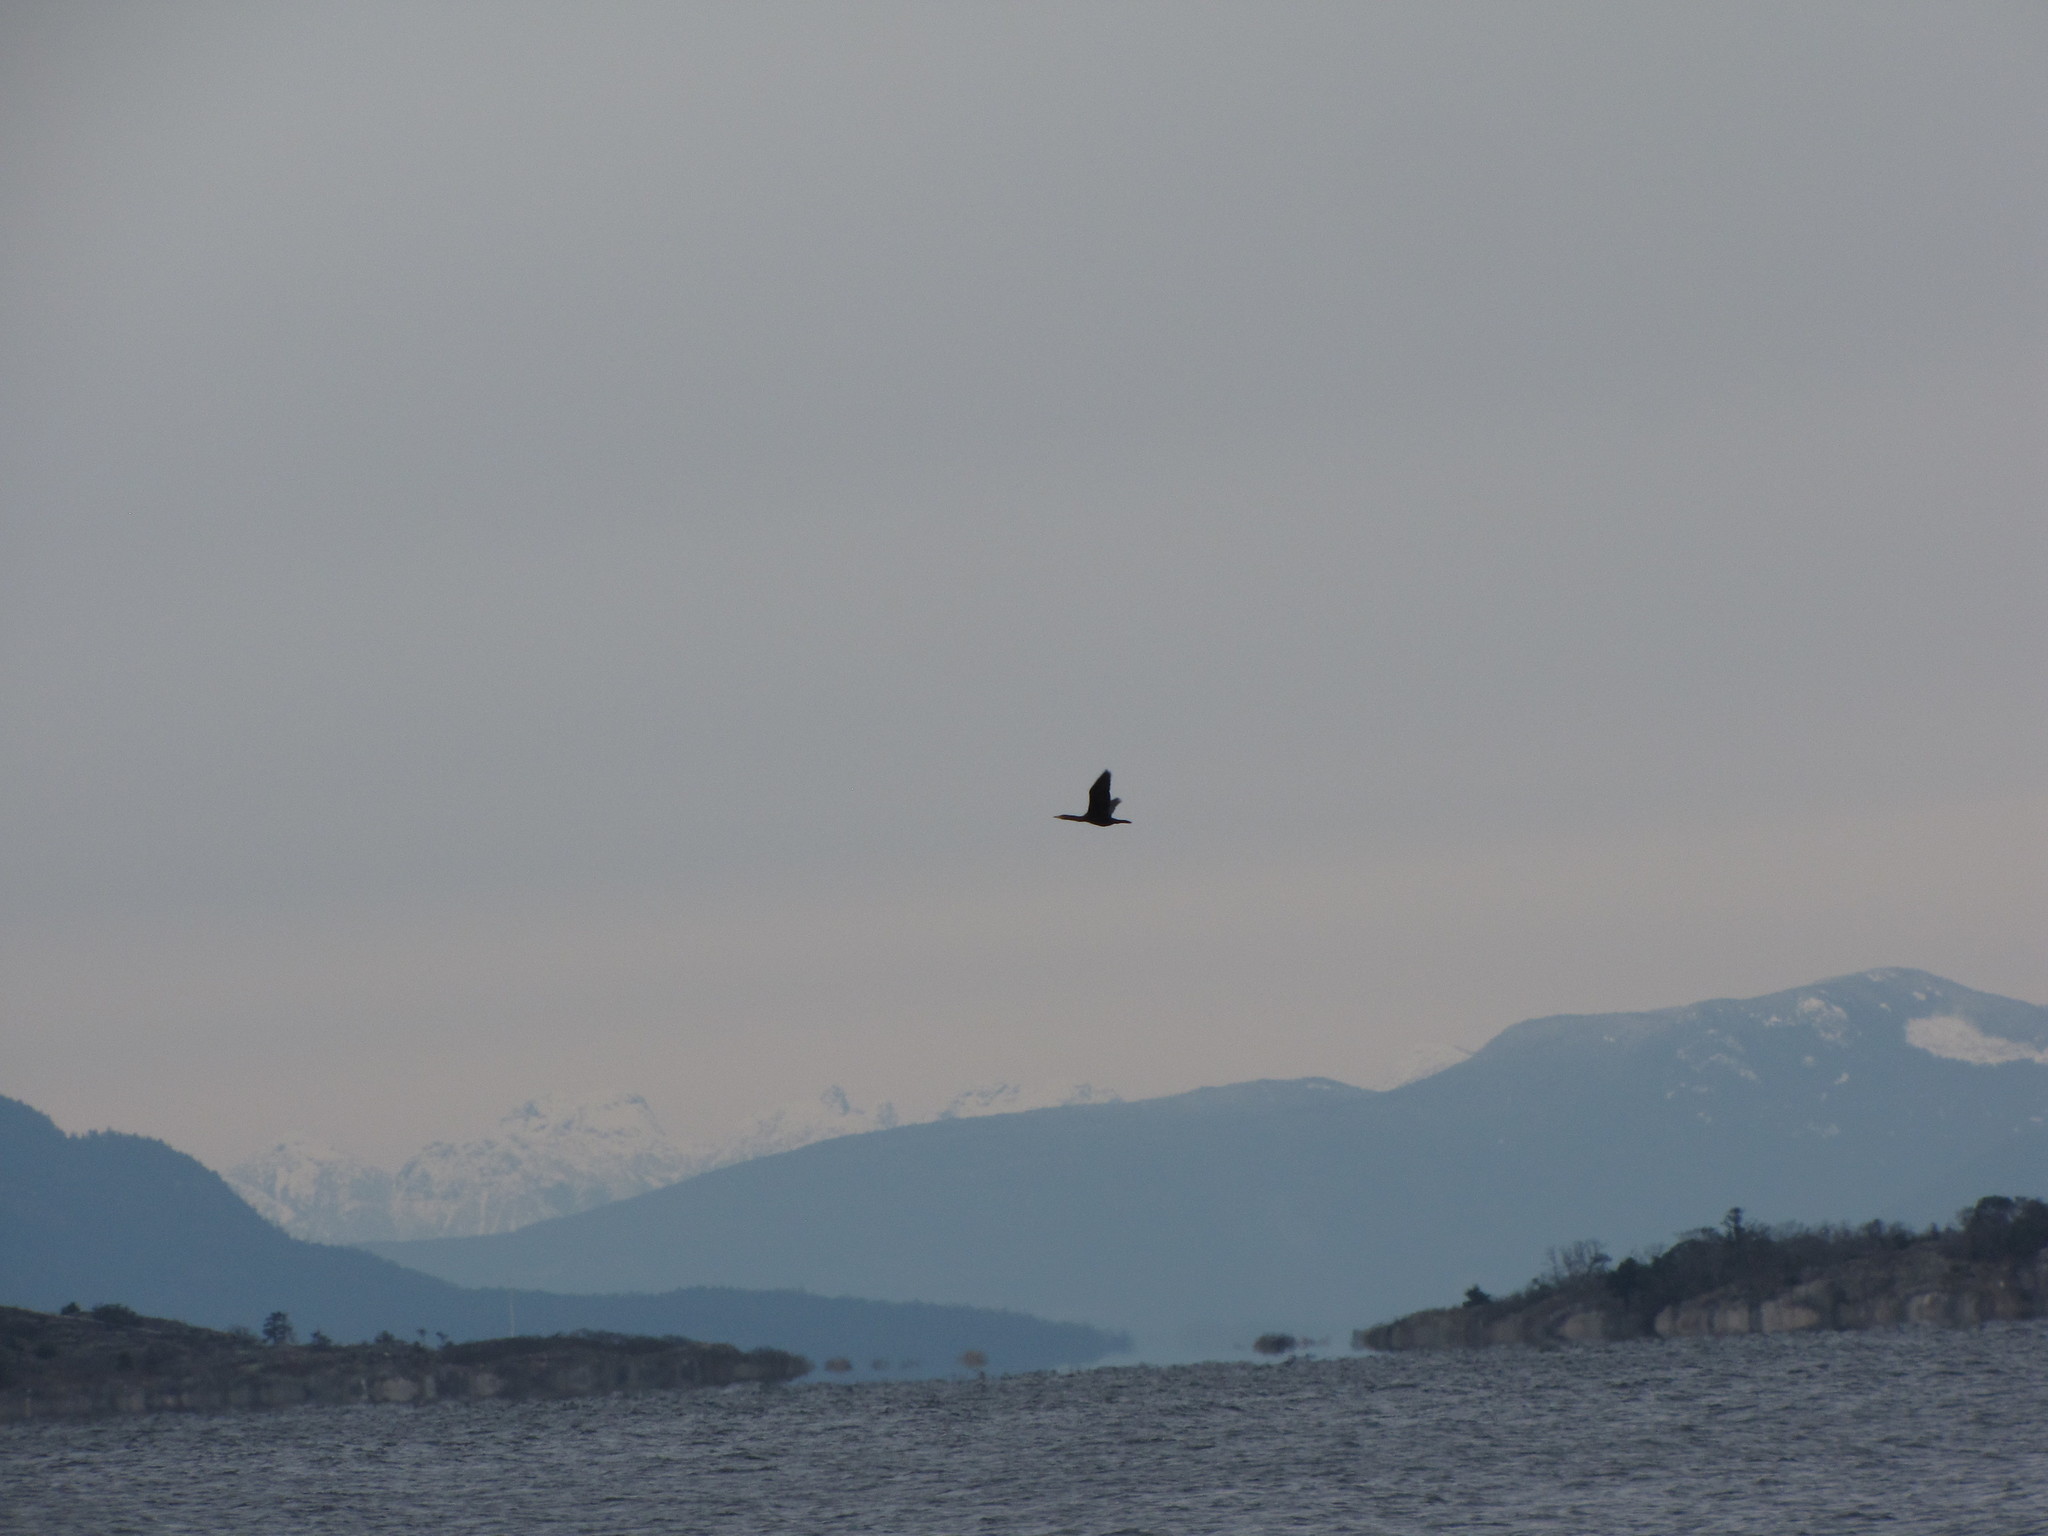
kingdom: Animalia
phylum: Chordata
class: Aves
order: Suliformes
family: Phalacrocoracidae
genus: Phalacrocorax
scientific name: Phalacrocorax auritus
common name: Double-crested cormorant
